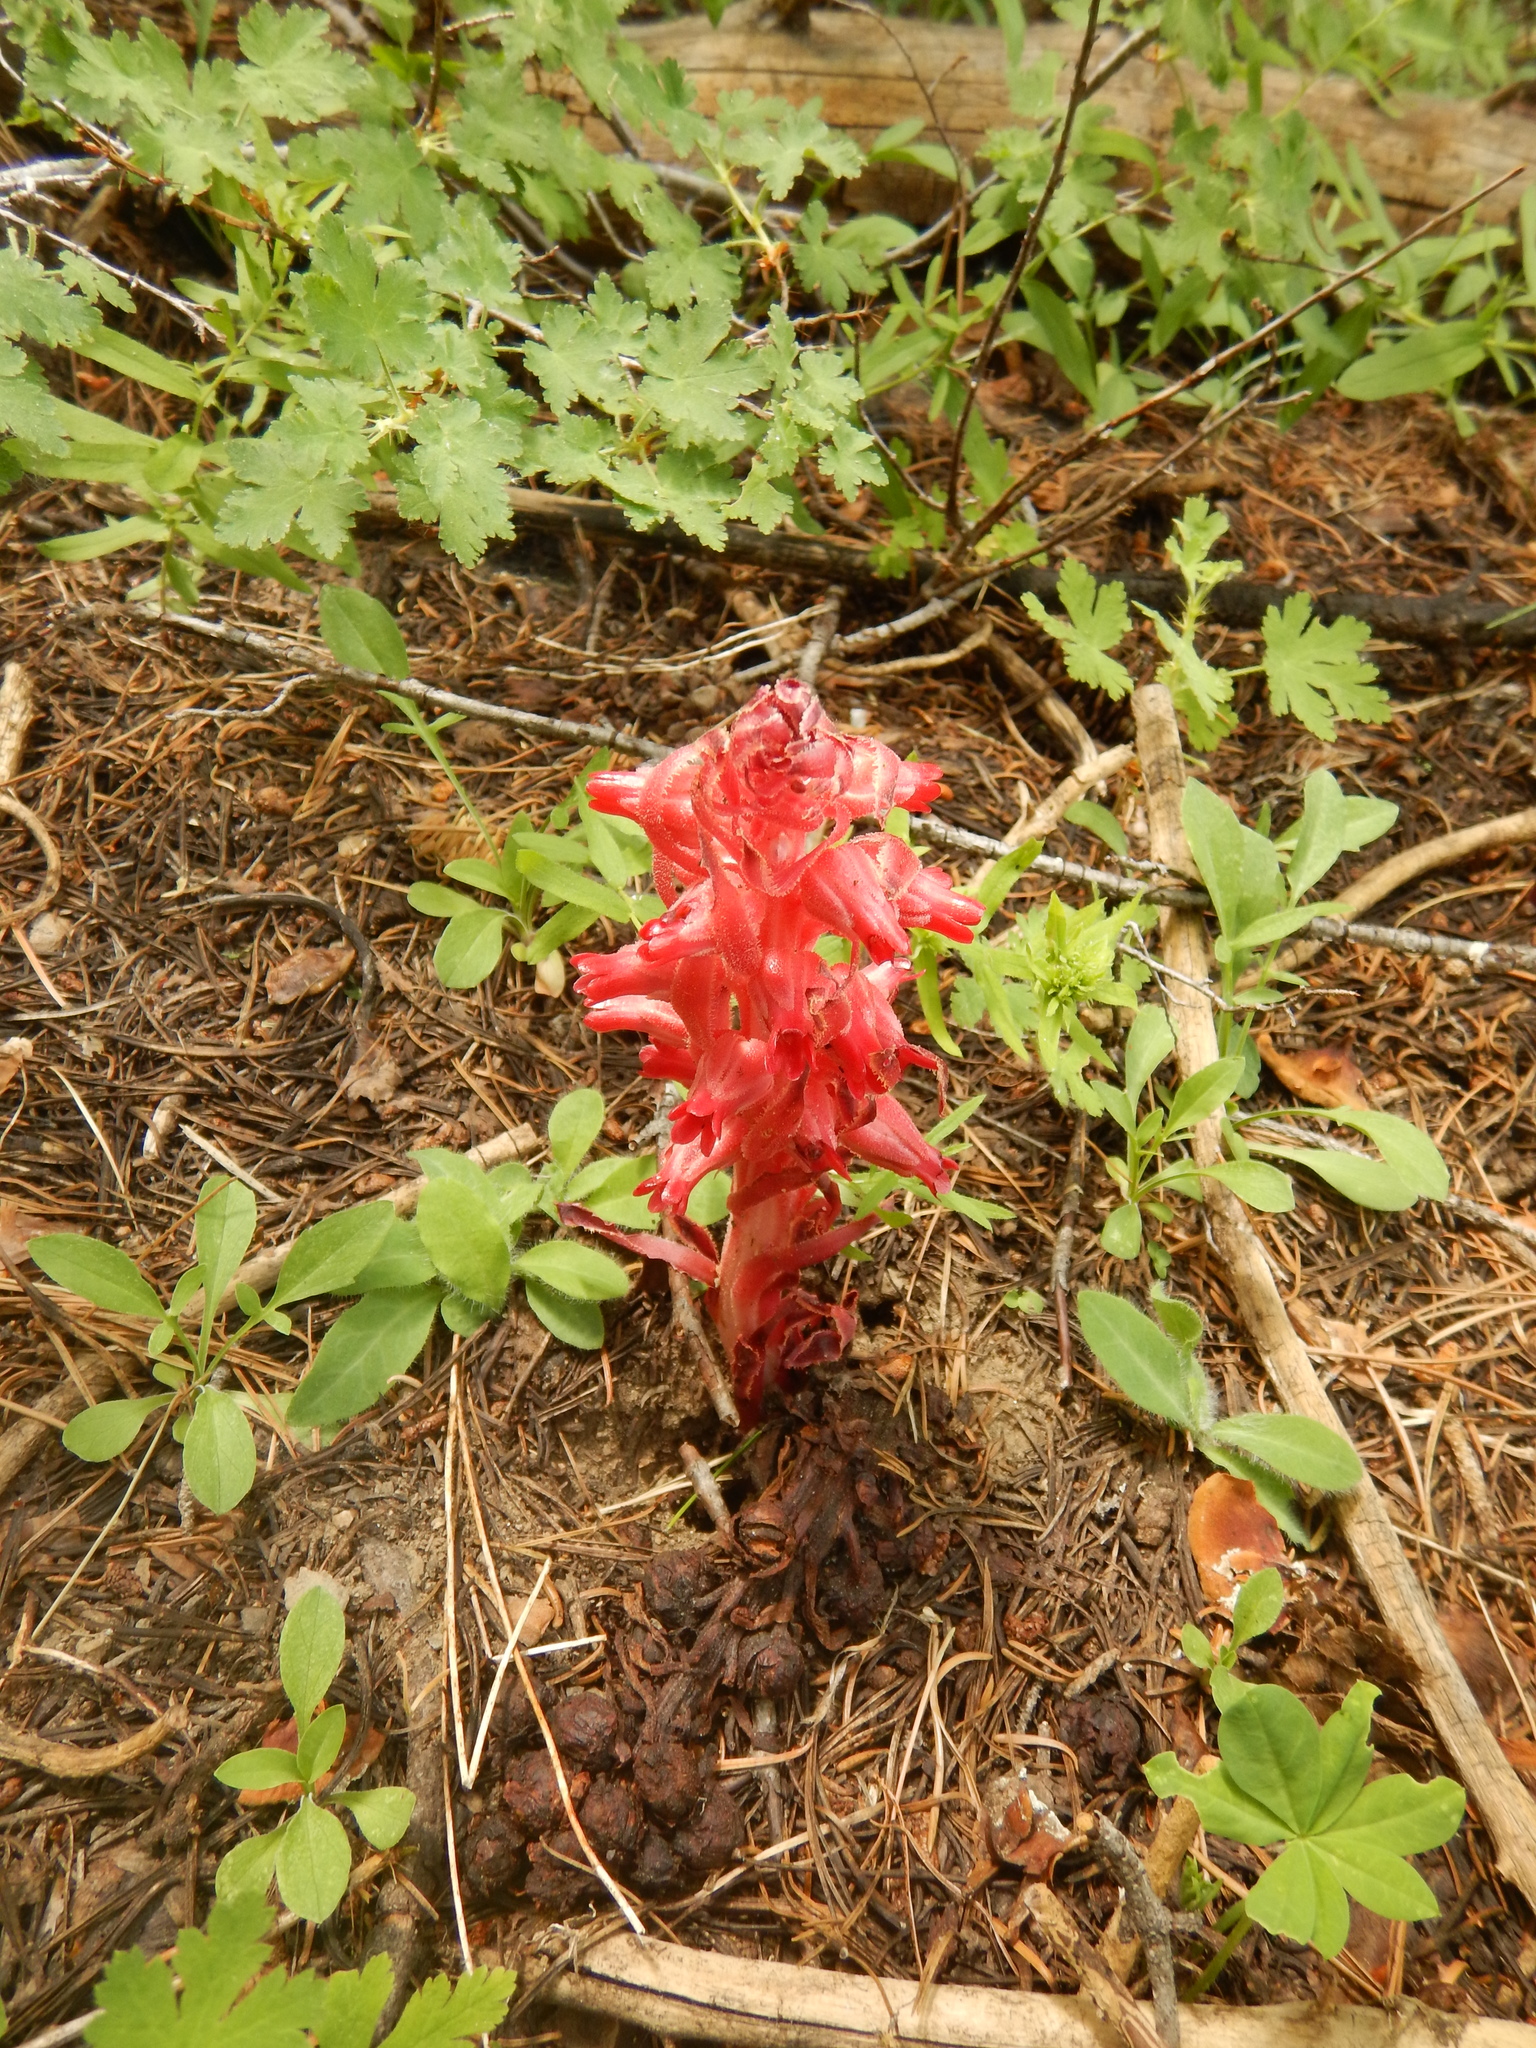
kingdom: Plantae
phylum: Tracheophyta
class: Magnoliopsida
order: Ericales
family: Ericaceae
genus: Sarcodes
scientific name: Sarcodes sanguinea
